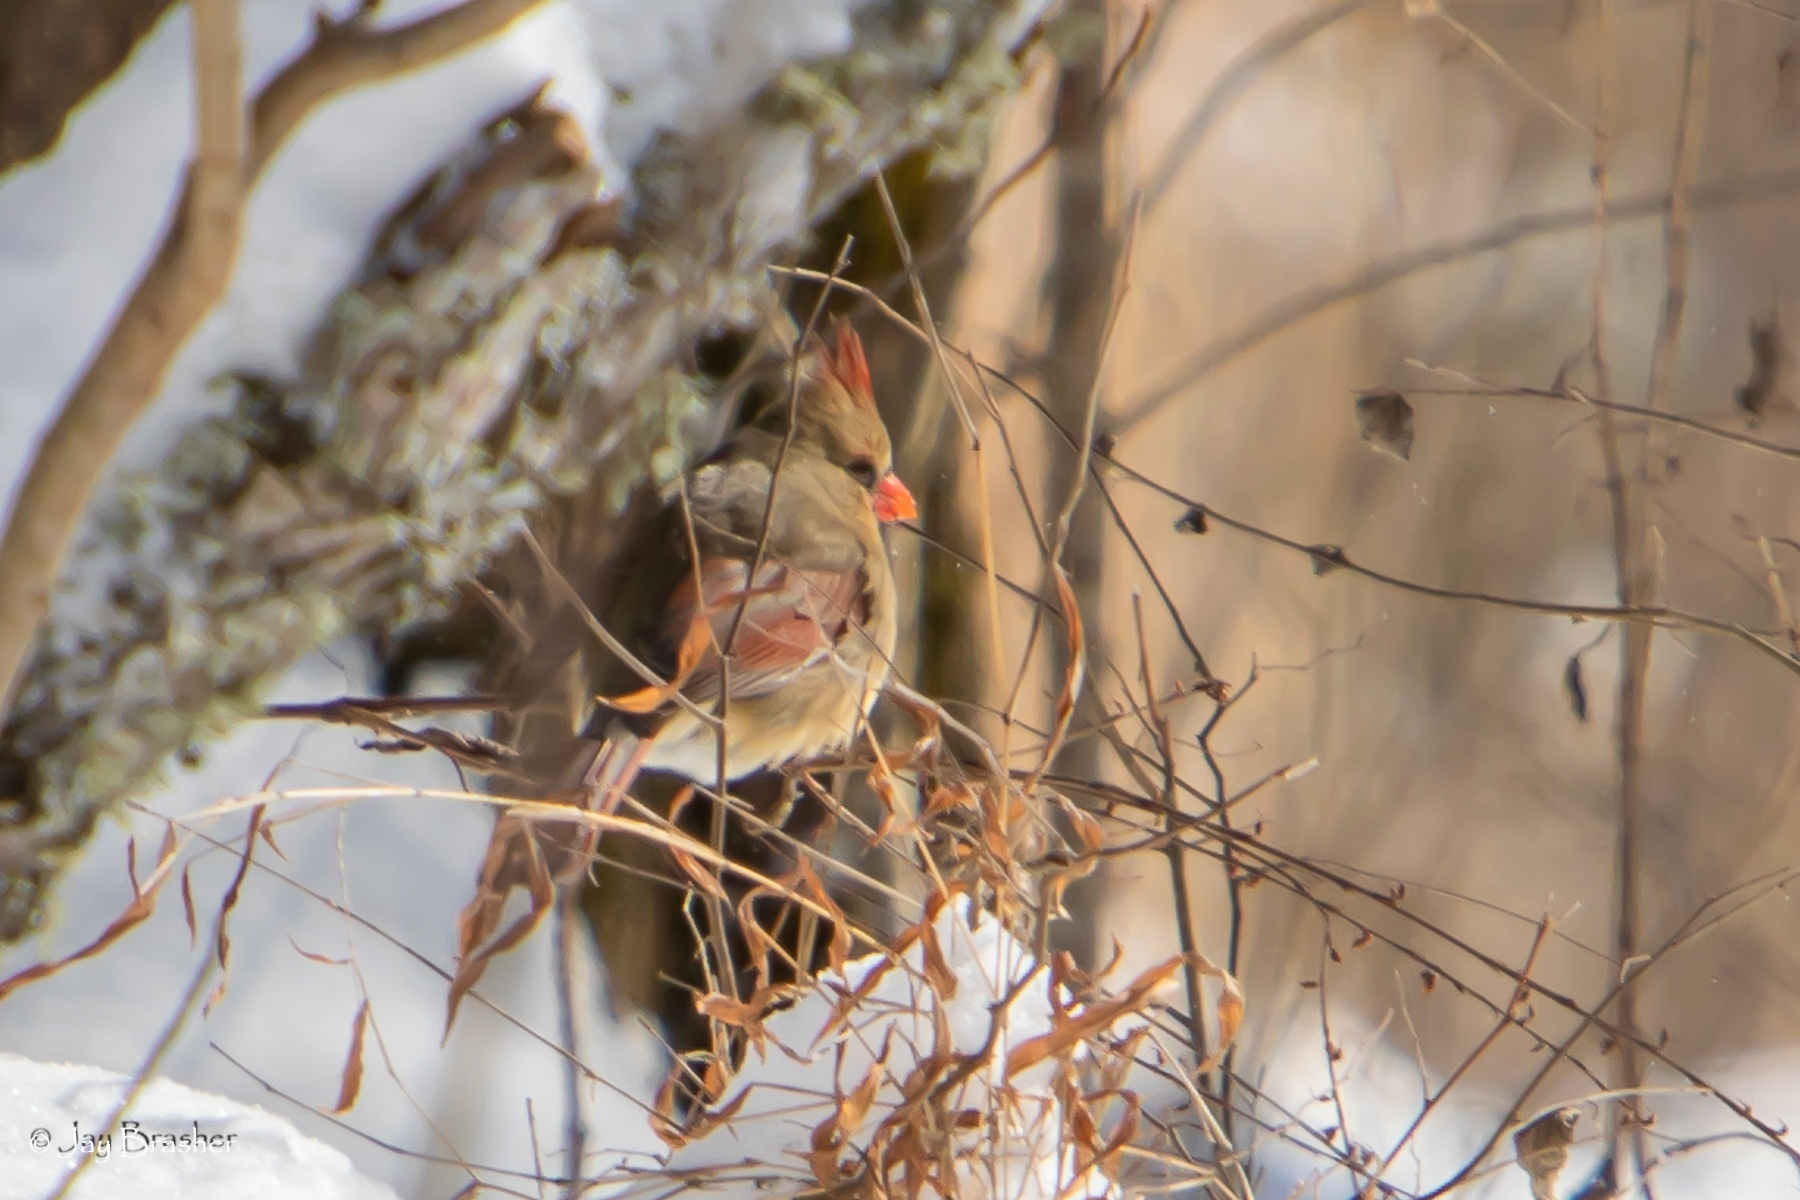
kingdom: Animalia
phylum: Chordata
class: Aves
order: Passeriformes
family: Cardinalidae
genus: Cardinalis
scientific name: Cardinalis cardinalis
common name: Northern cardinal
